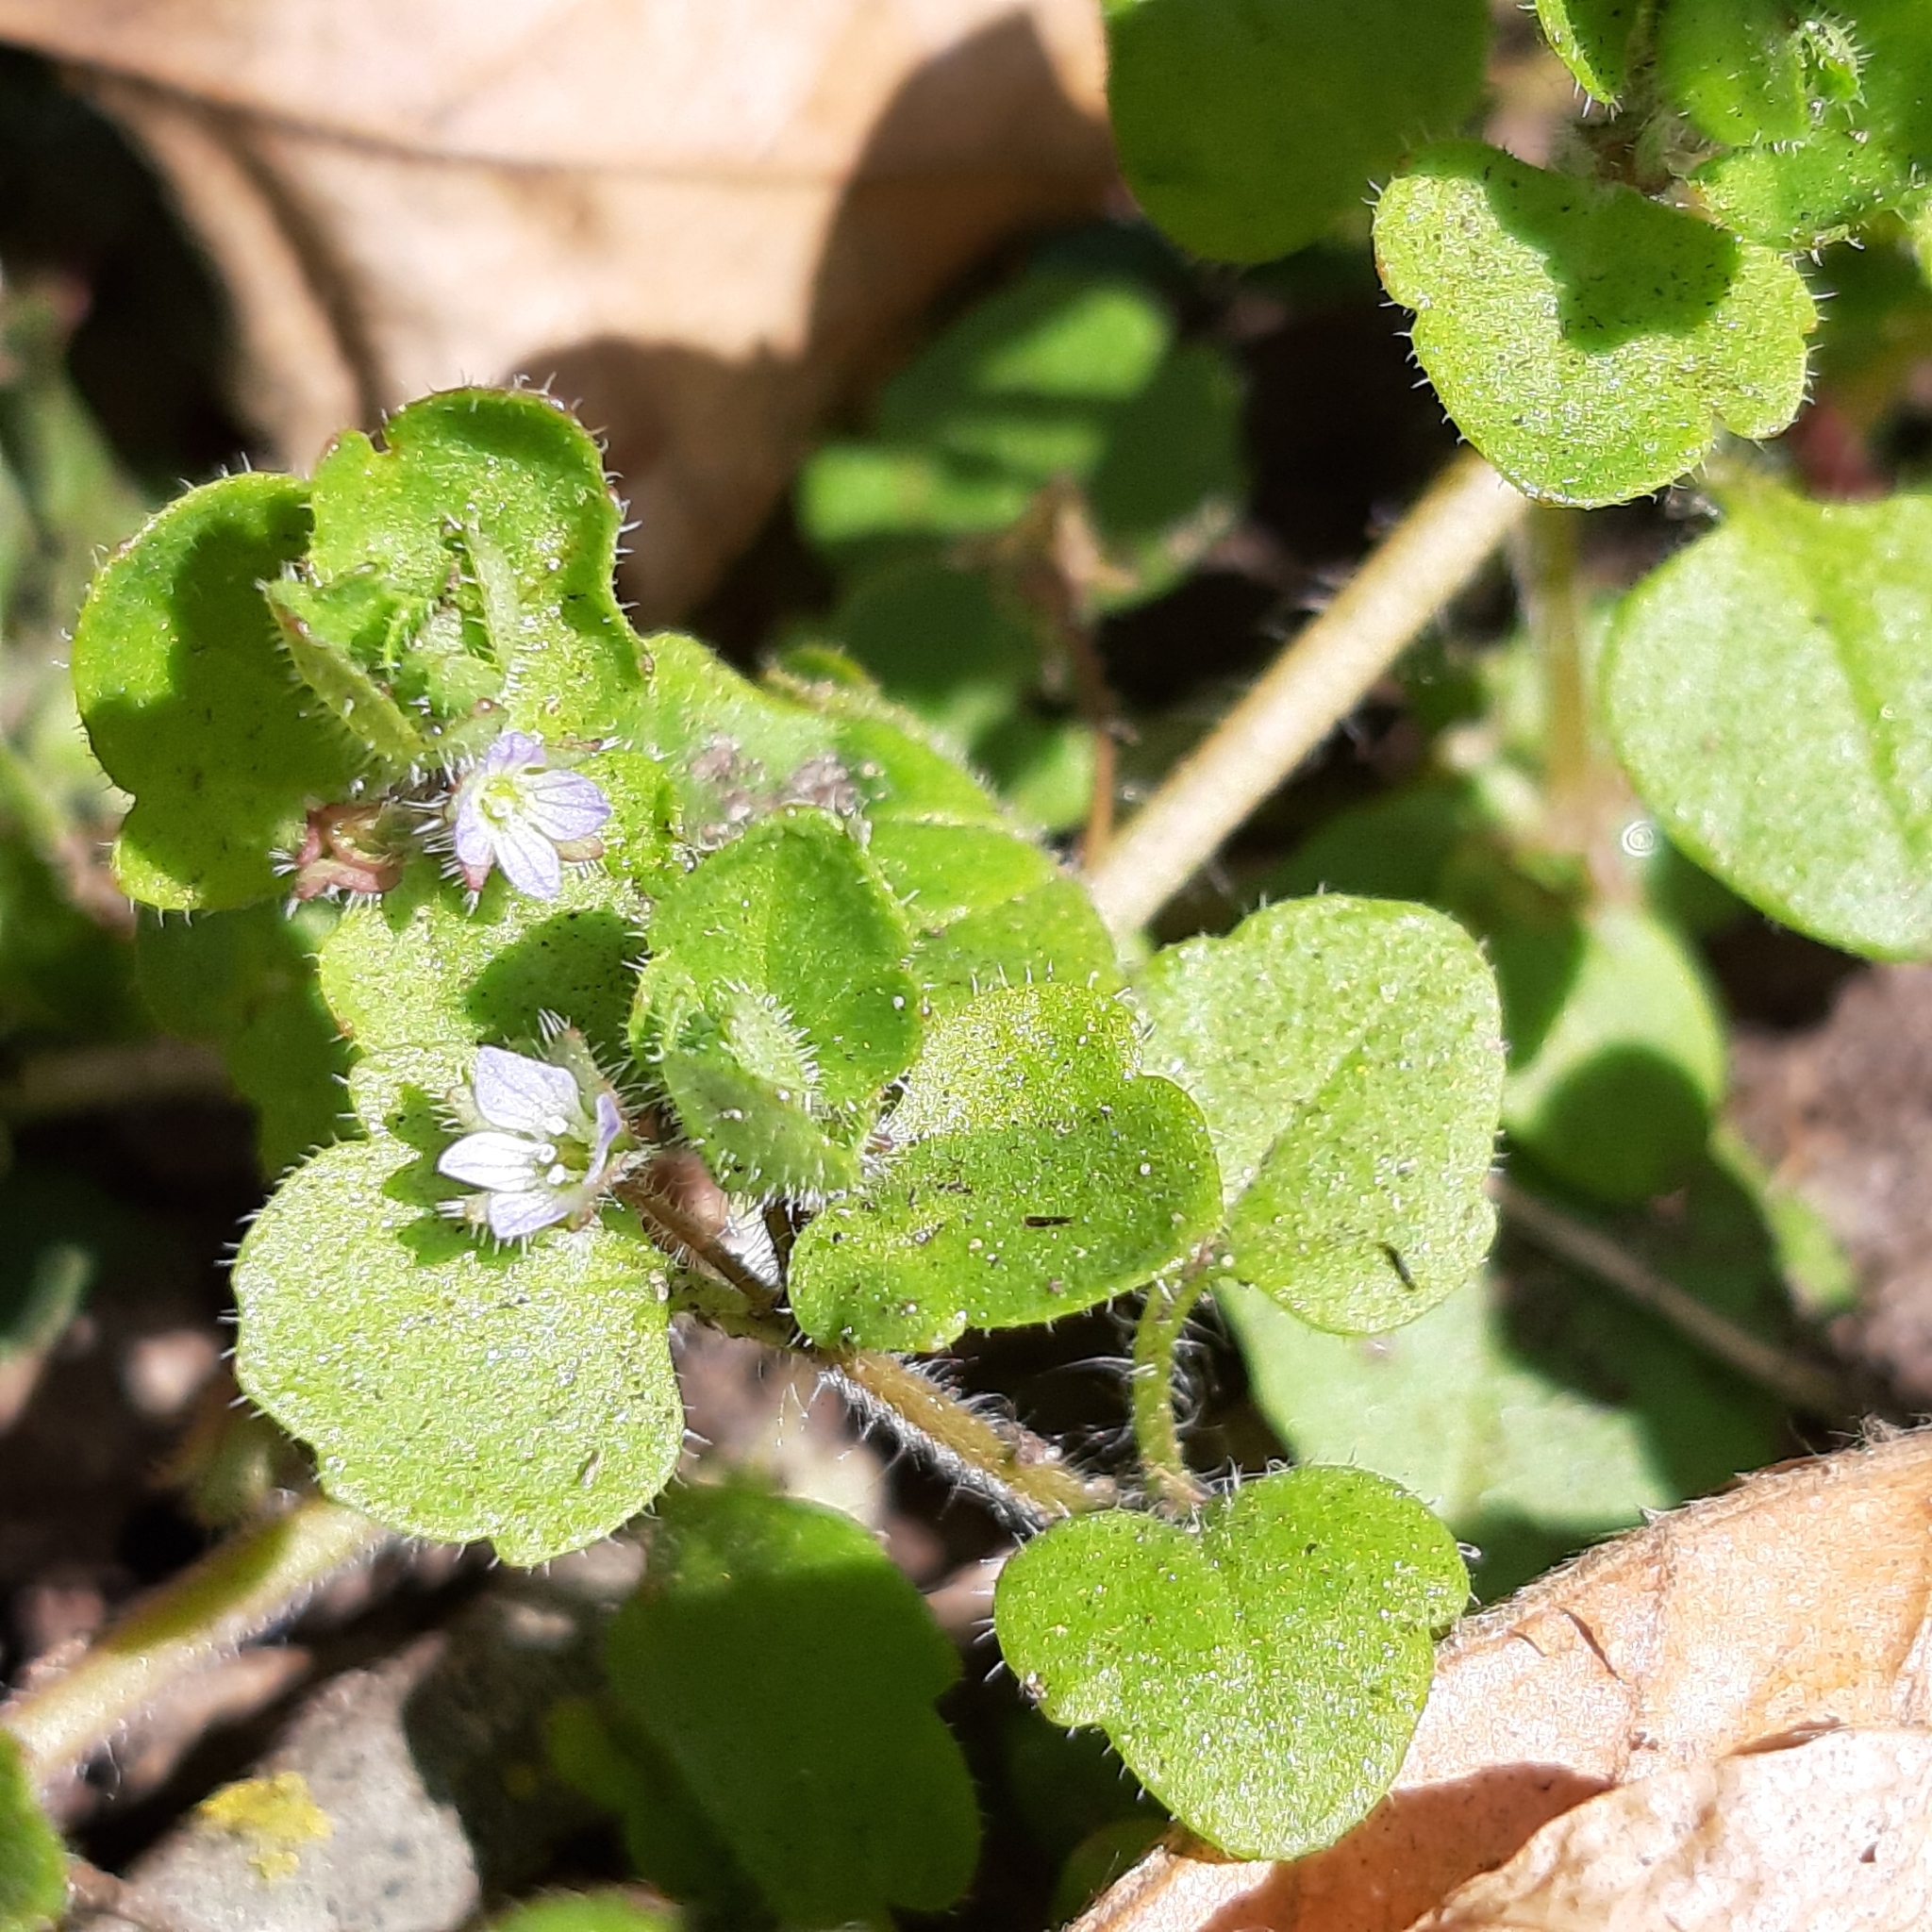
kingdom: Plantae
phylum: Tracheophyta
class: Magnoliopsida
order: Lamiales
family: Plantaginaceae
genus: Veronica
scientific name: Veronica sublobata
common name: False ivy-leaved speedwell
